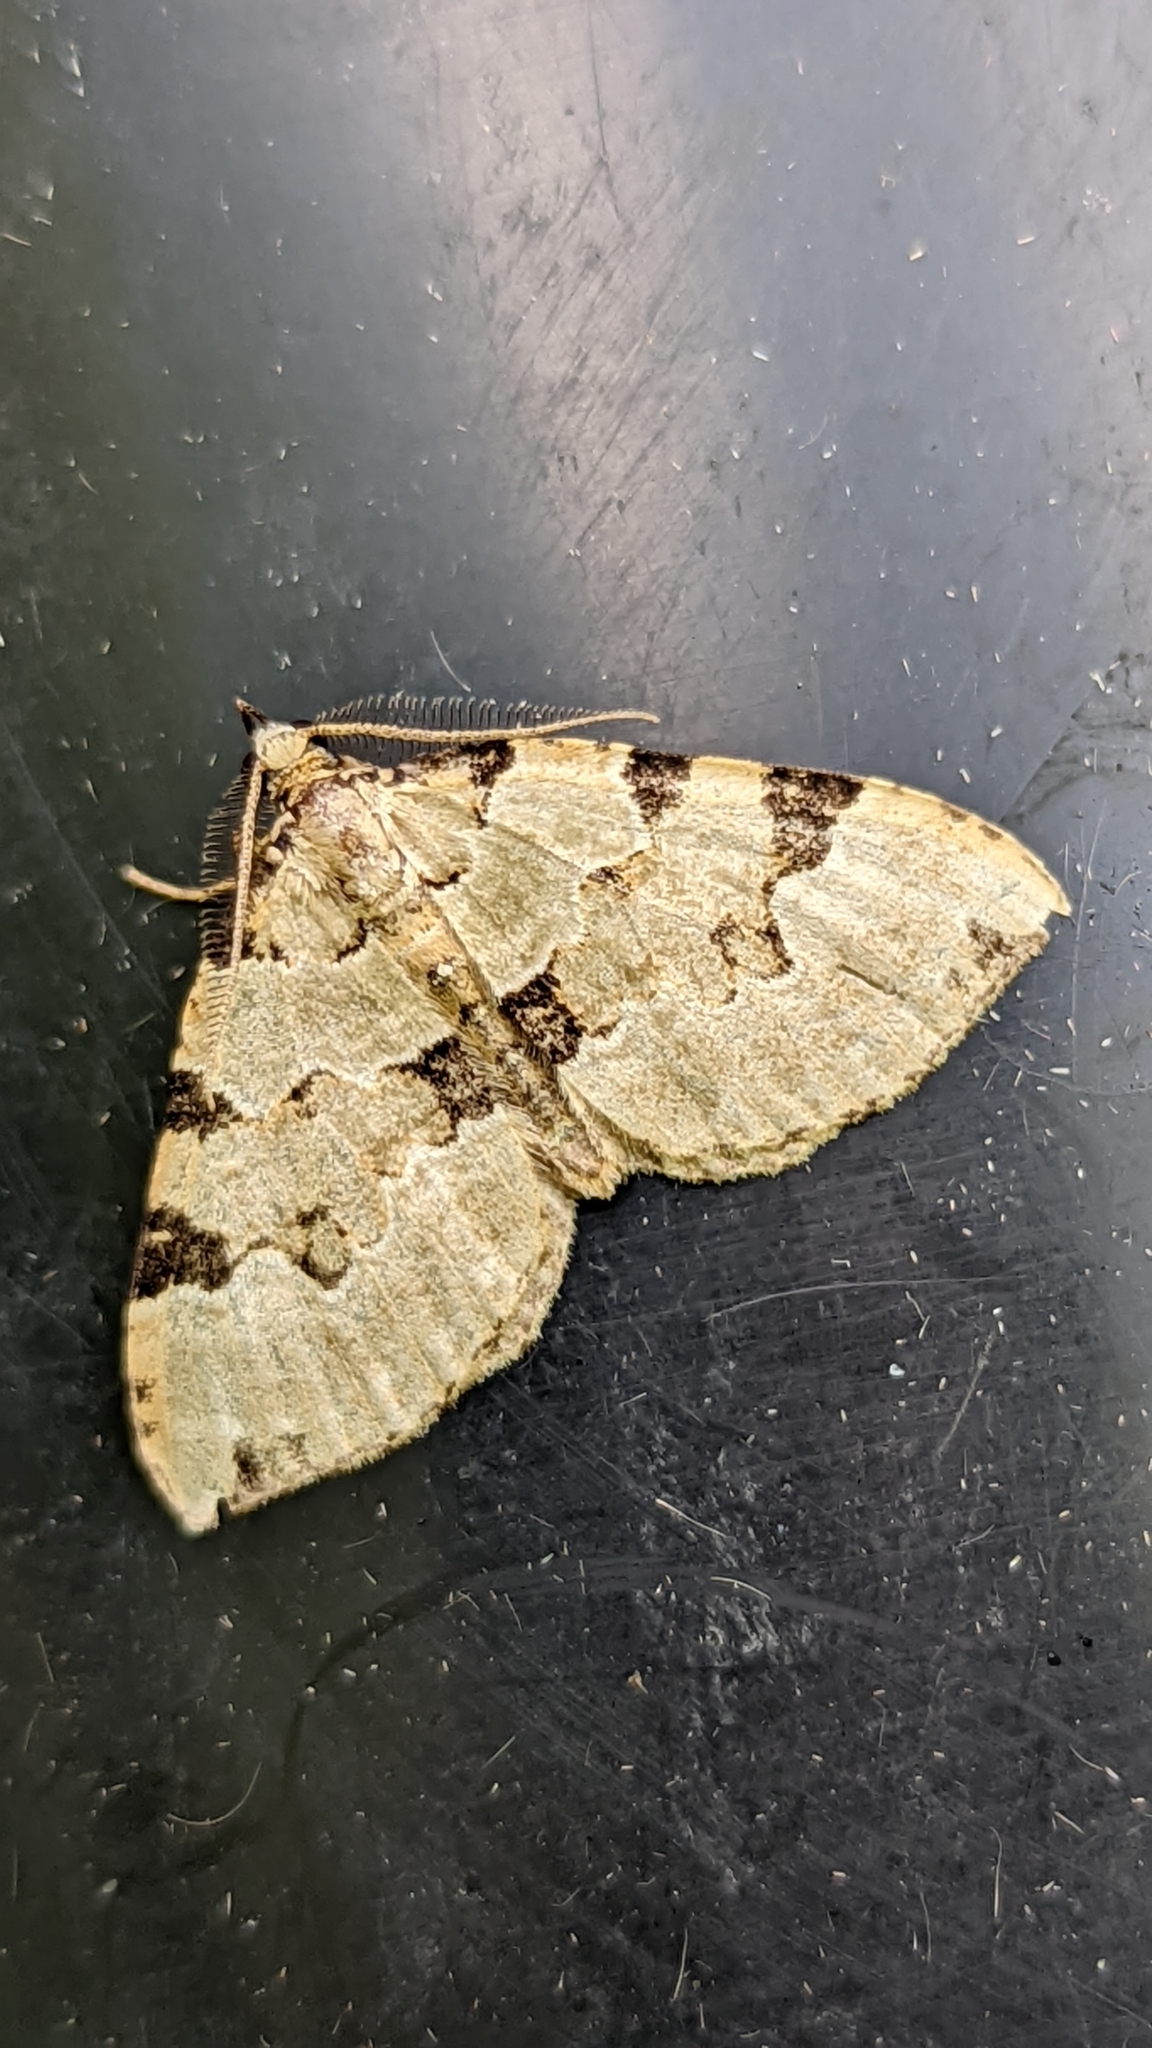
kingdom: Animalia
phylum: Arthropoda
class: Insecta
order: Lepidoptera
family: Geometridae
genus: Colostygia
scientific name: Colostygia pectinataria
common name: Green carpet
